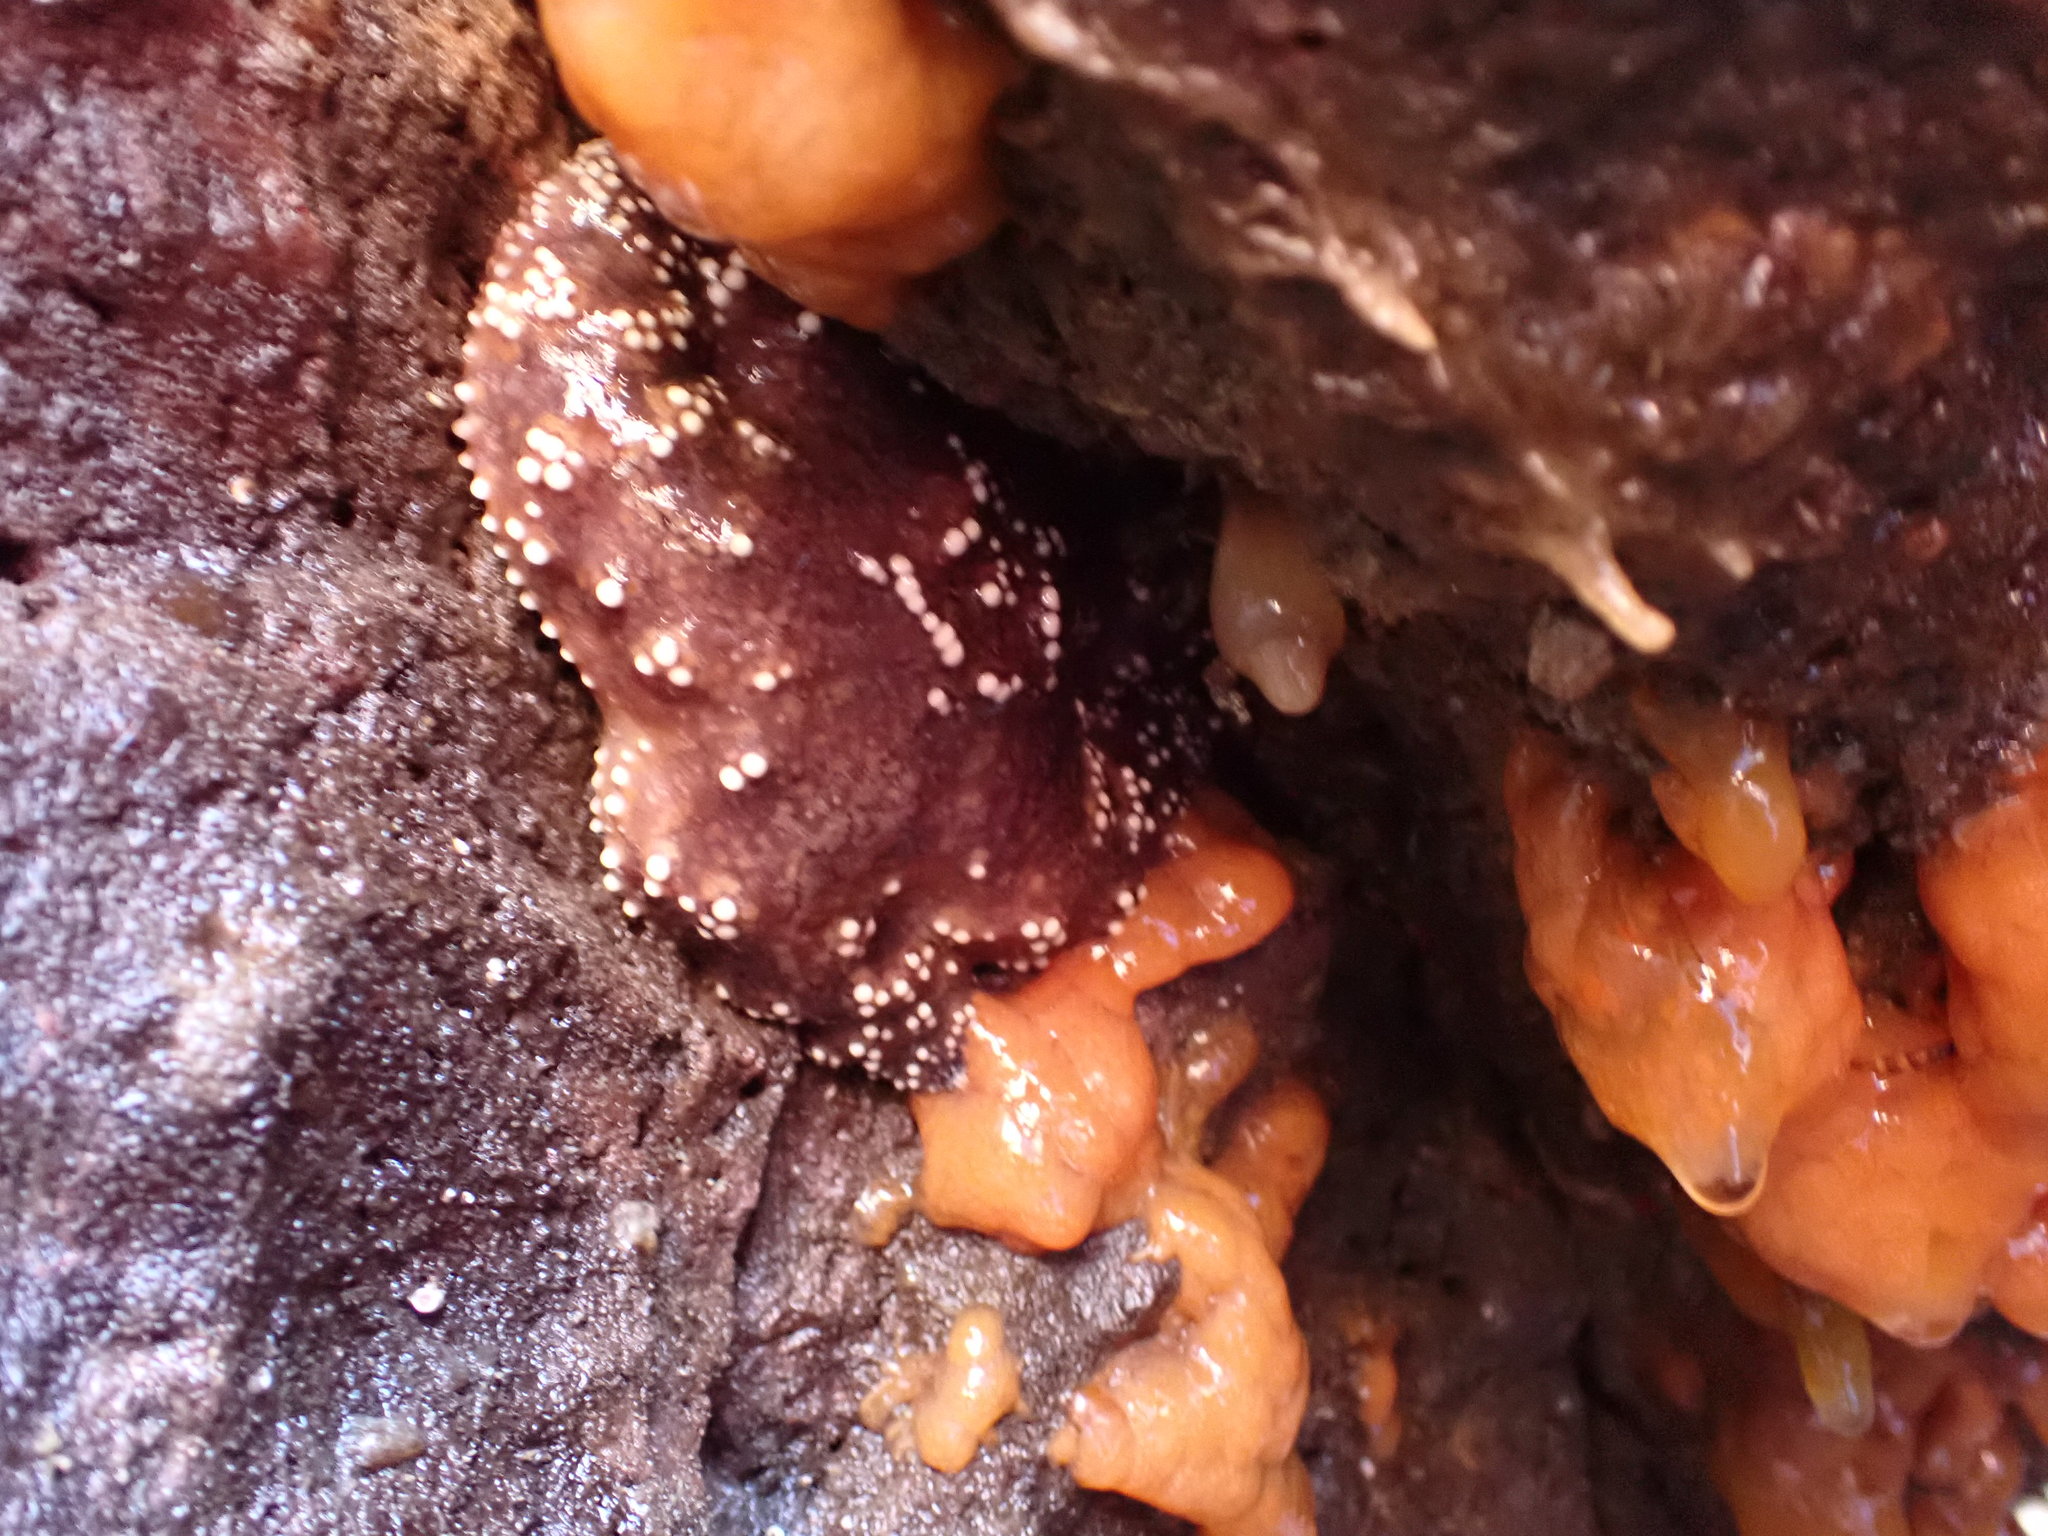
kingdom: Animalia
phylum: Echinodermata
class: Asteroidea
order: Forcipulatida
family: Asteriidae
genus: Pisaster
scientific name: Pisaster ochraceus
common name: Ochre stars
